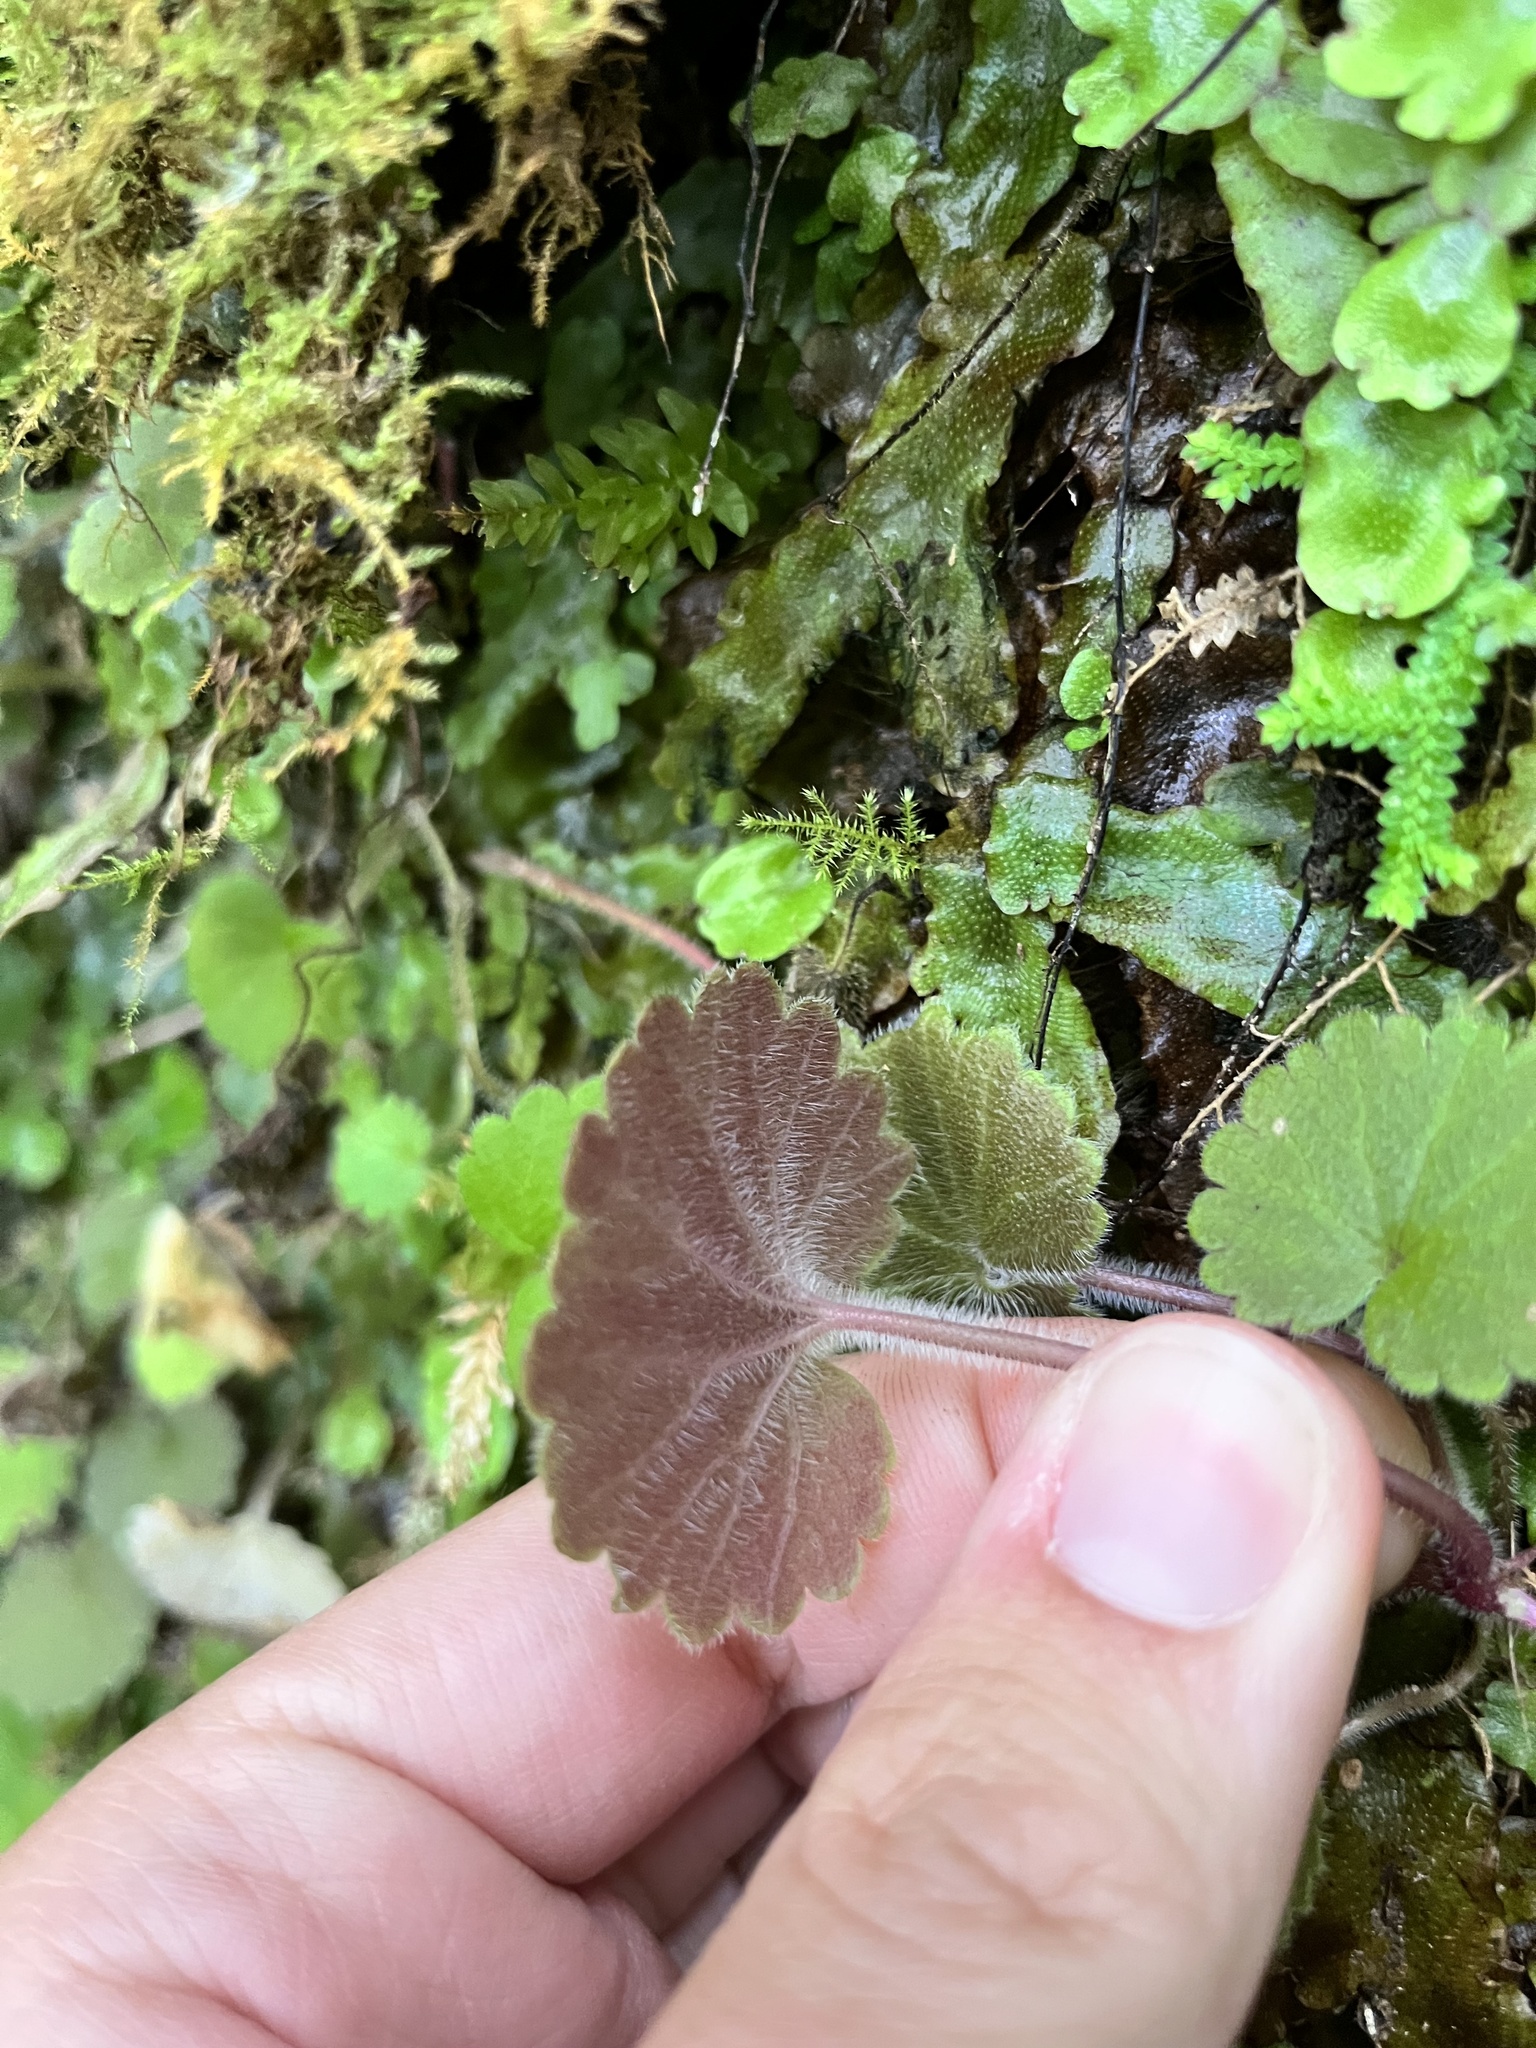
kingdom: Plantae
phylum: Tracheophyta
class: Magnoliopsida
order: Lamiales
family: Plantaginaceae
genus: Sibthorpia
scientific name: Sibthorpia peregrina
